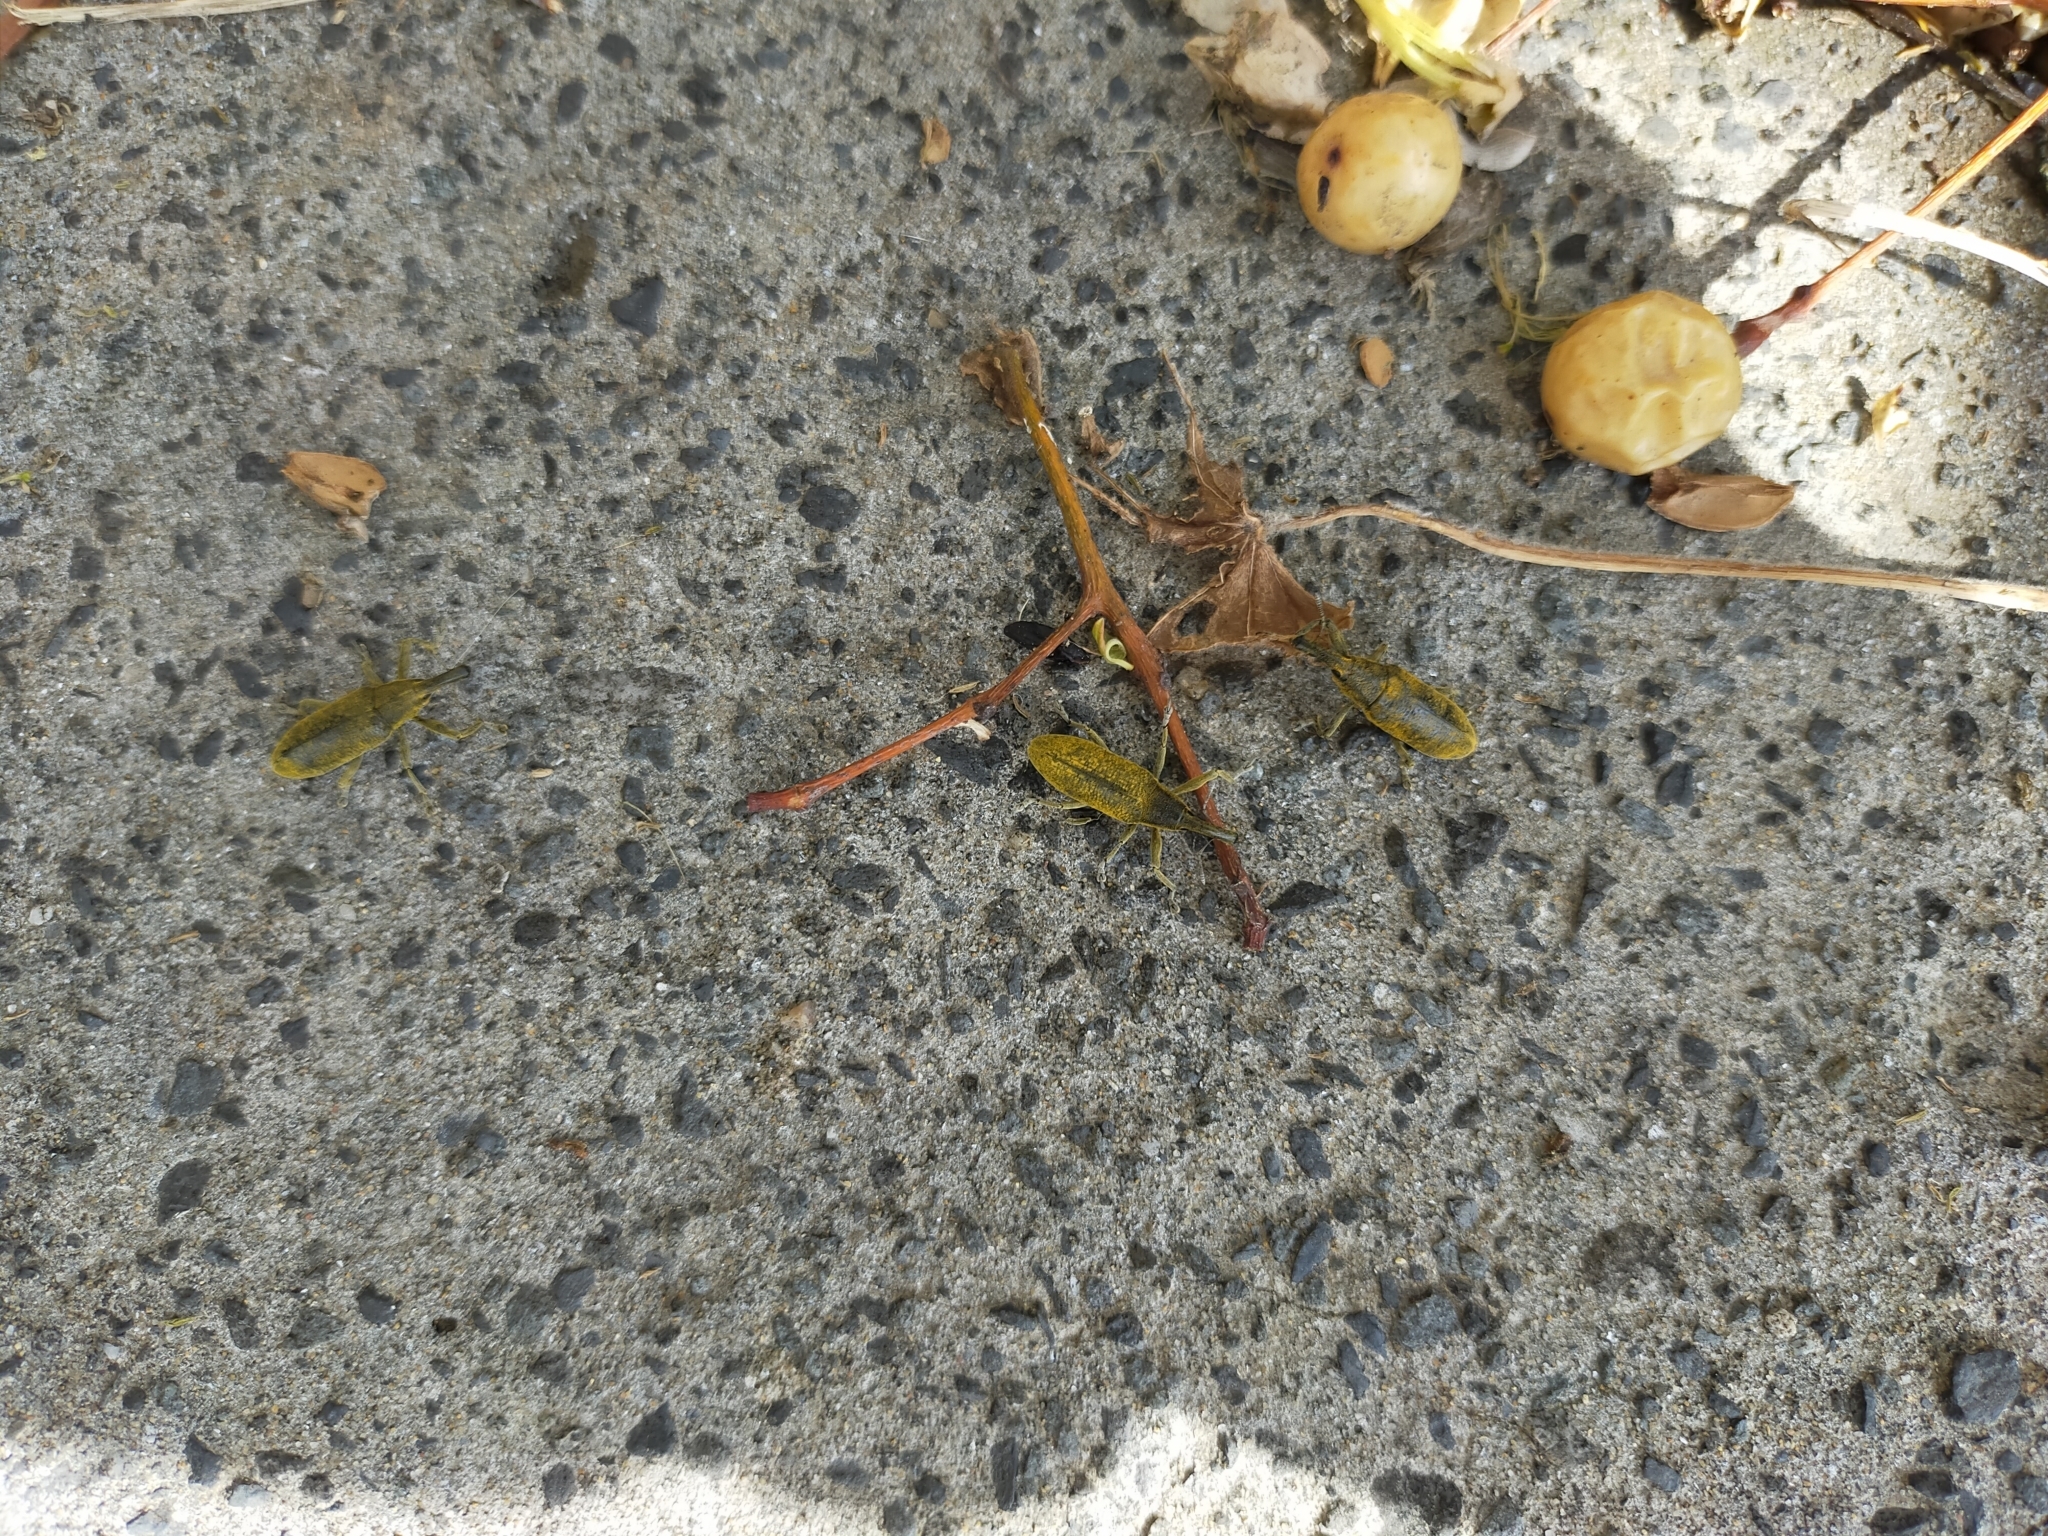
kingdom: Animalia
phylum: Arthropoda
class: Insecta
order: Coleoptera
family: Curculionidae
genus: Lixus
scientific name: Lixus pulverulentus
